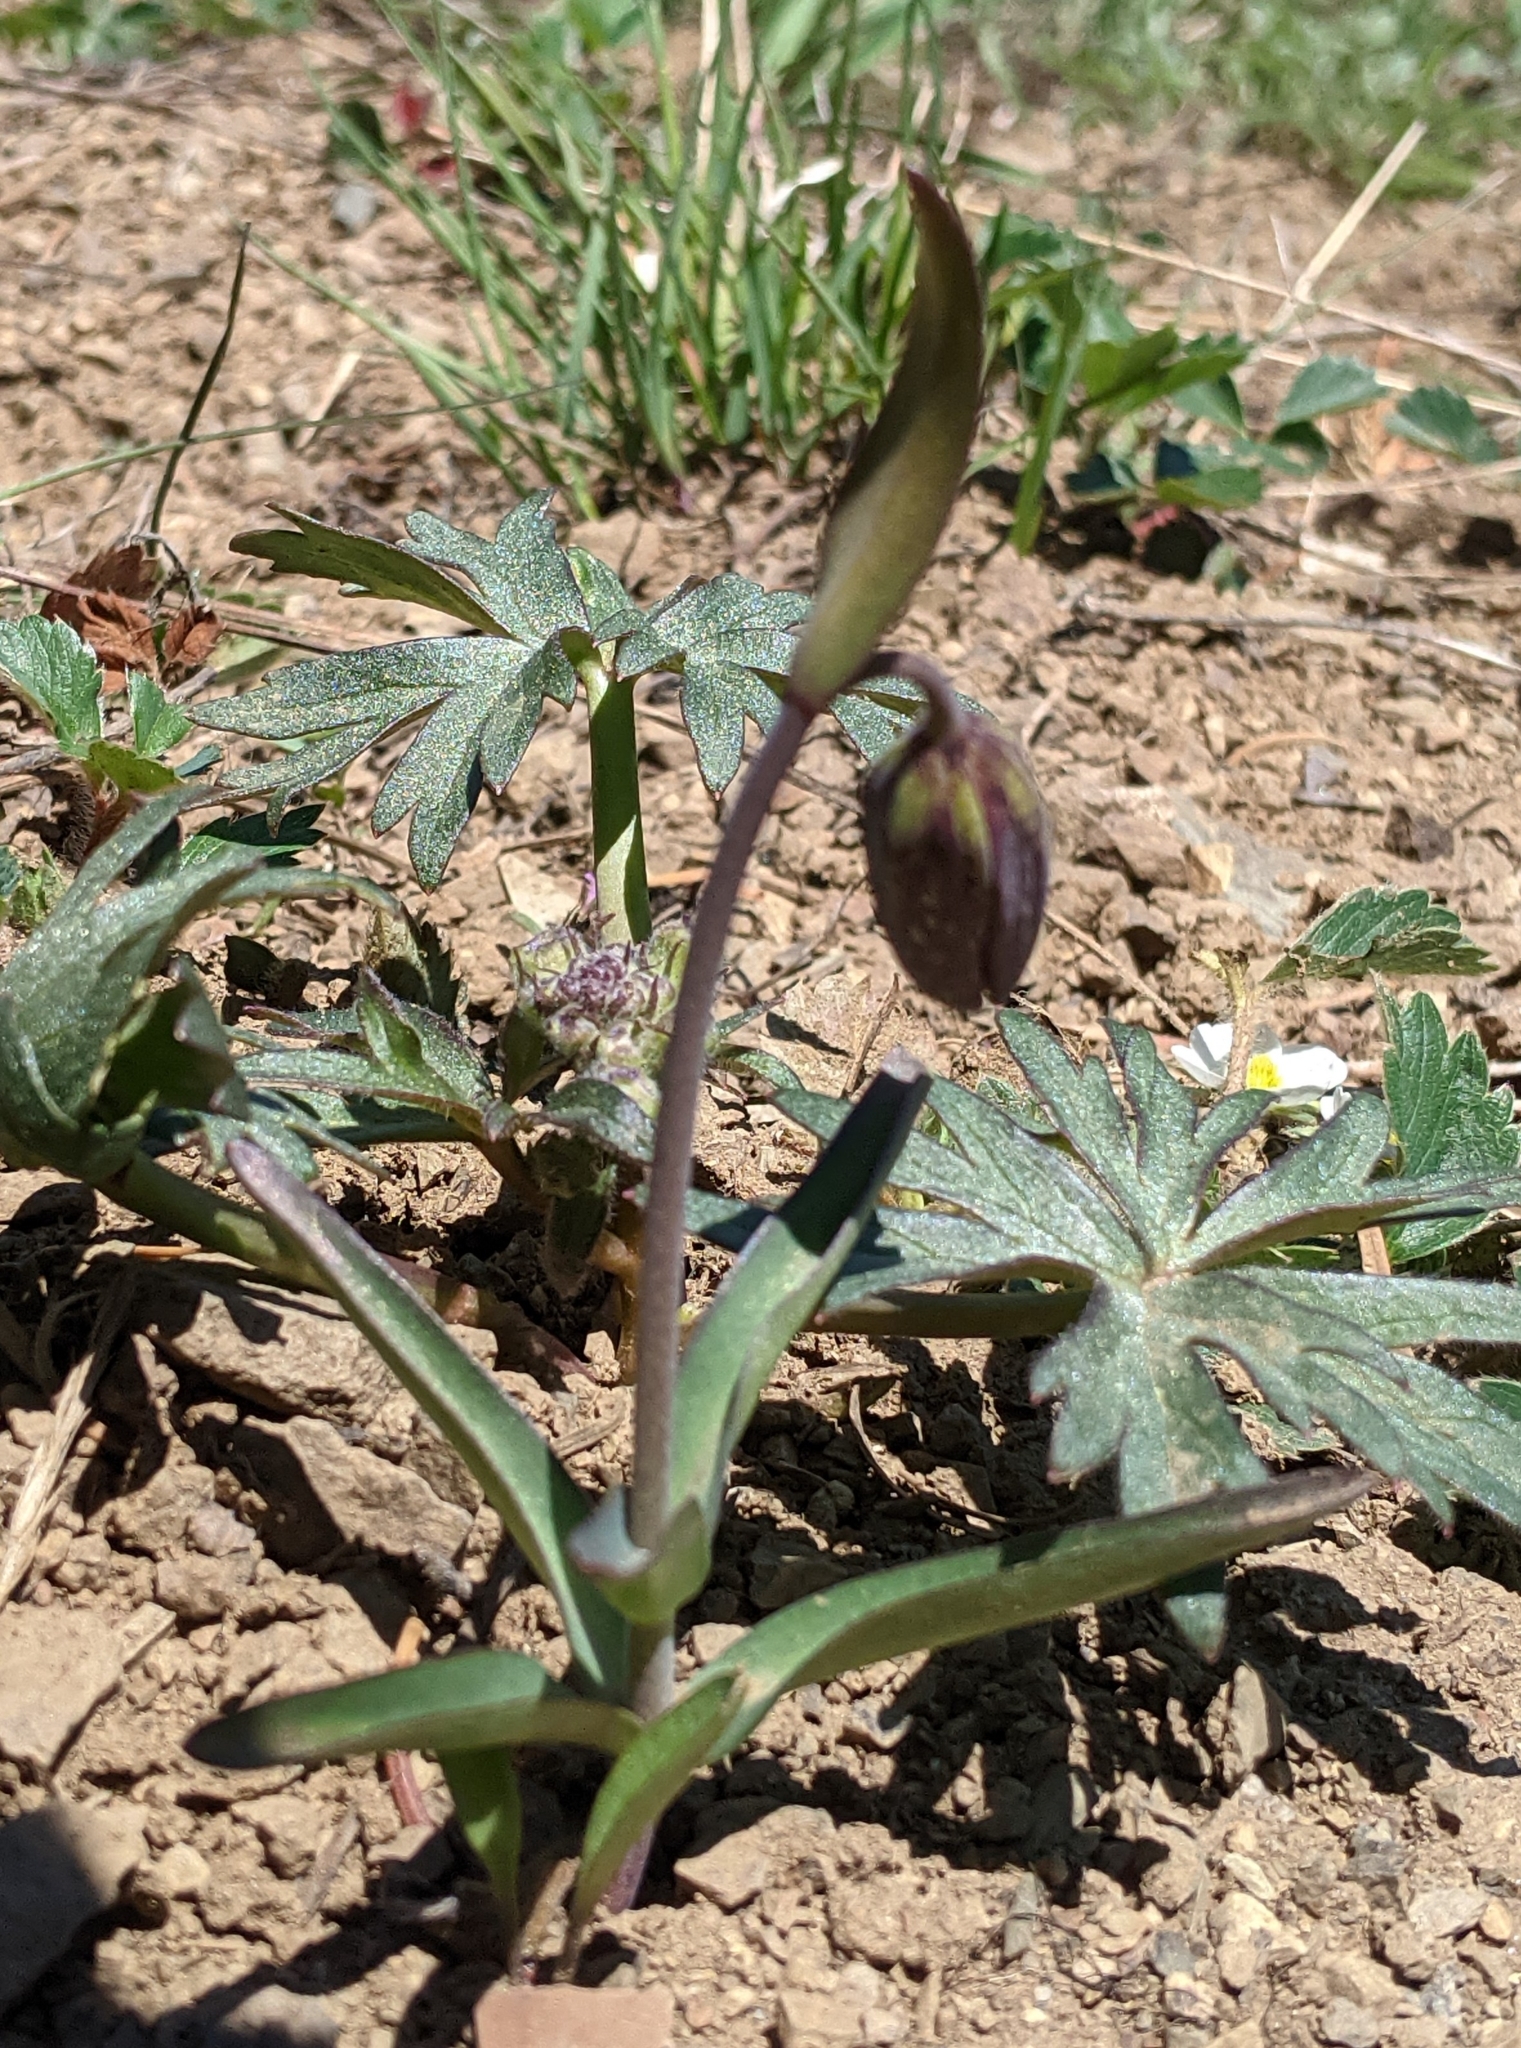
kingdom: Plantae
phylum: Tracheophyta
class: Liliopsida
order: Liliales
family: Liliaceae
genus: Fritillaria
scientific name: Fritillaria affinis
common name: Ojai fritillary
